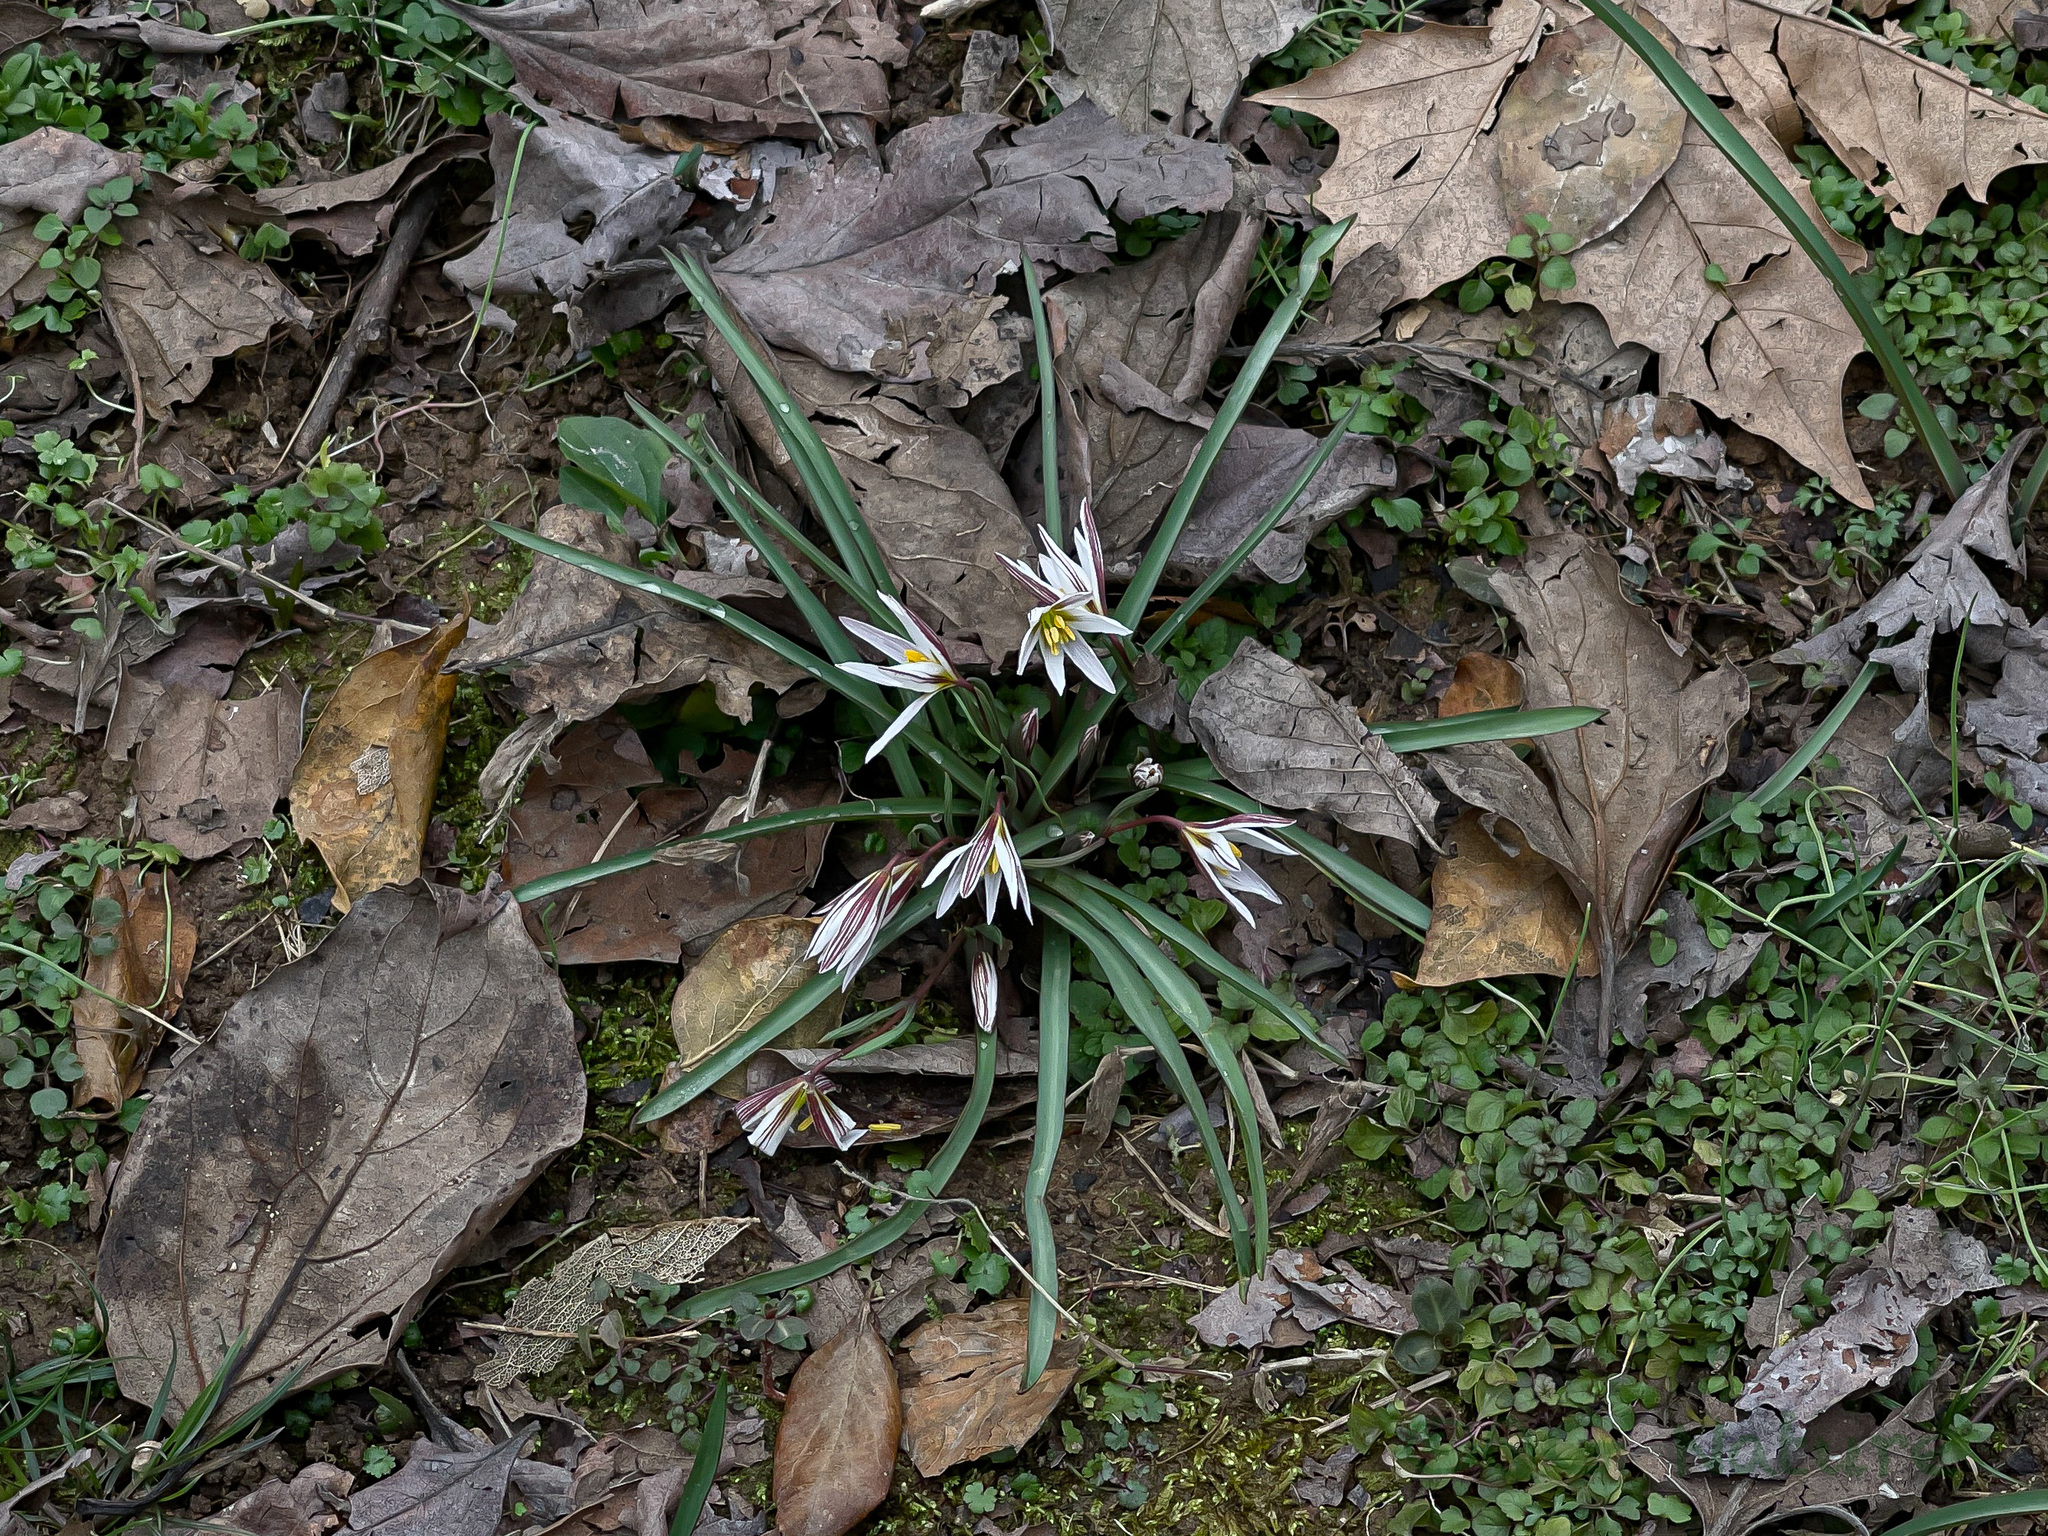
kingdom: Plantae
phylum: Tracheophyta
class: Liliopsida
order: Liliales
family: Liliaceae
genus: Amana
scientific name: Amana edulis
